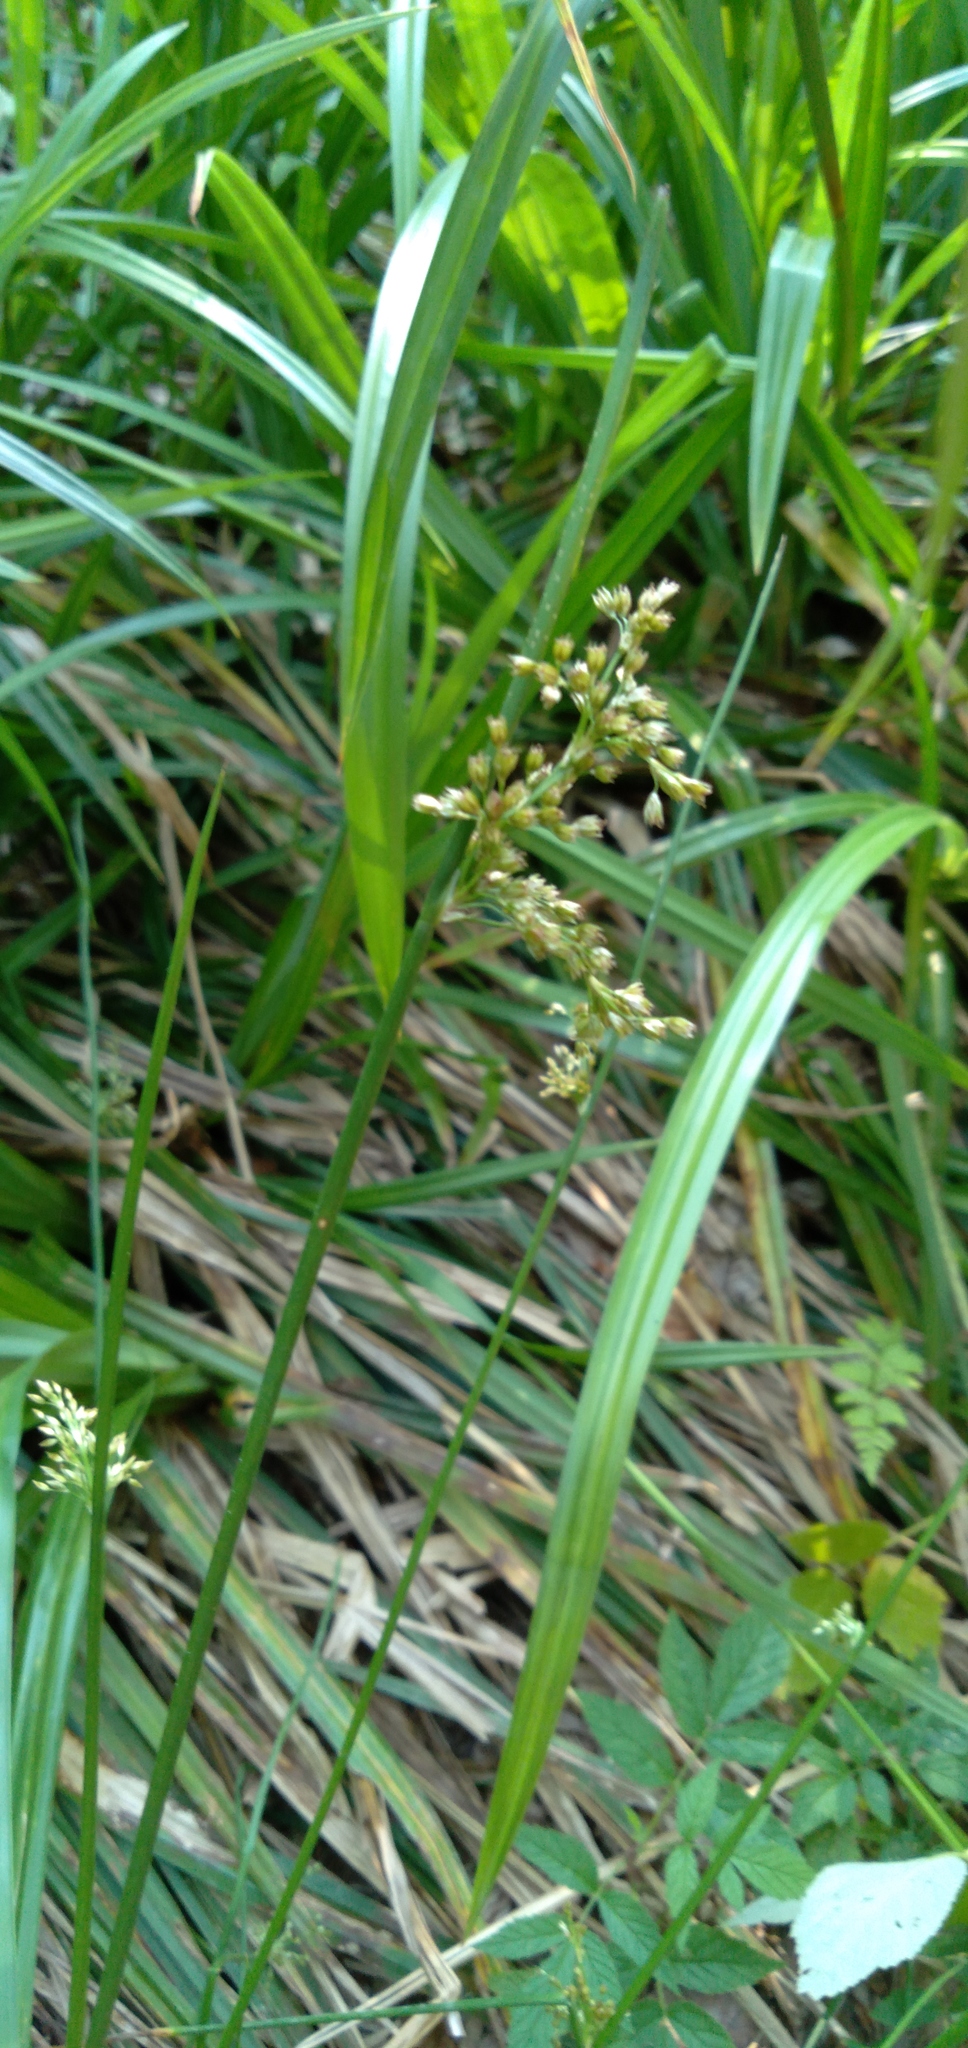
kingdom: Plantae
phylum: Tracheophyta
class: Liliopsida
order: Poales
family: Juncaceae
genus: Juncus
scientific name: Juncus effusus
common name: Soft rush
